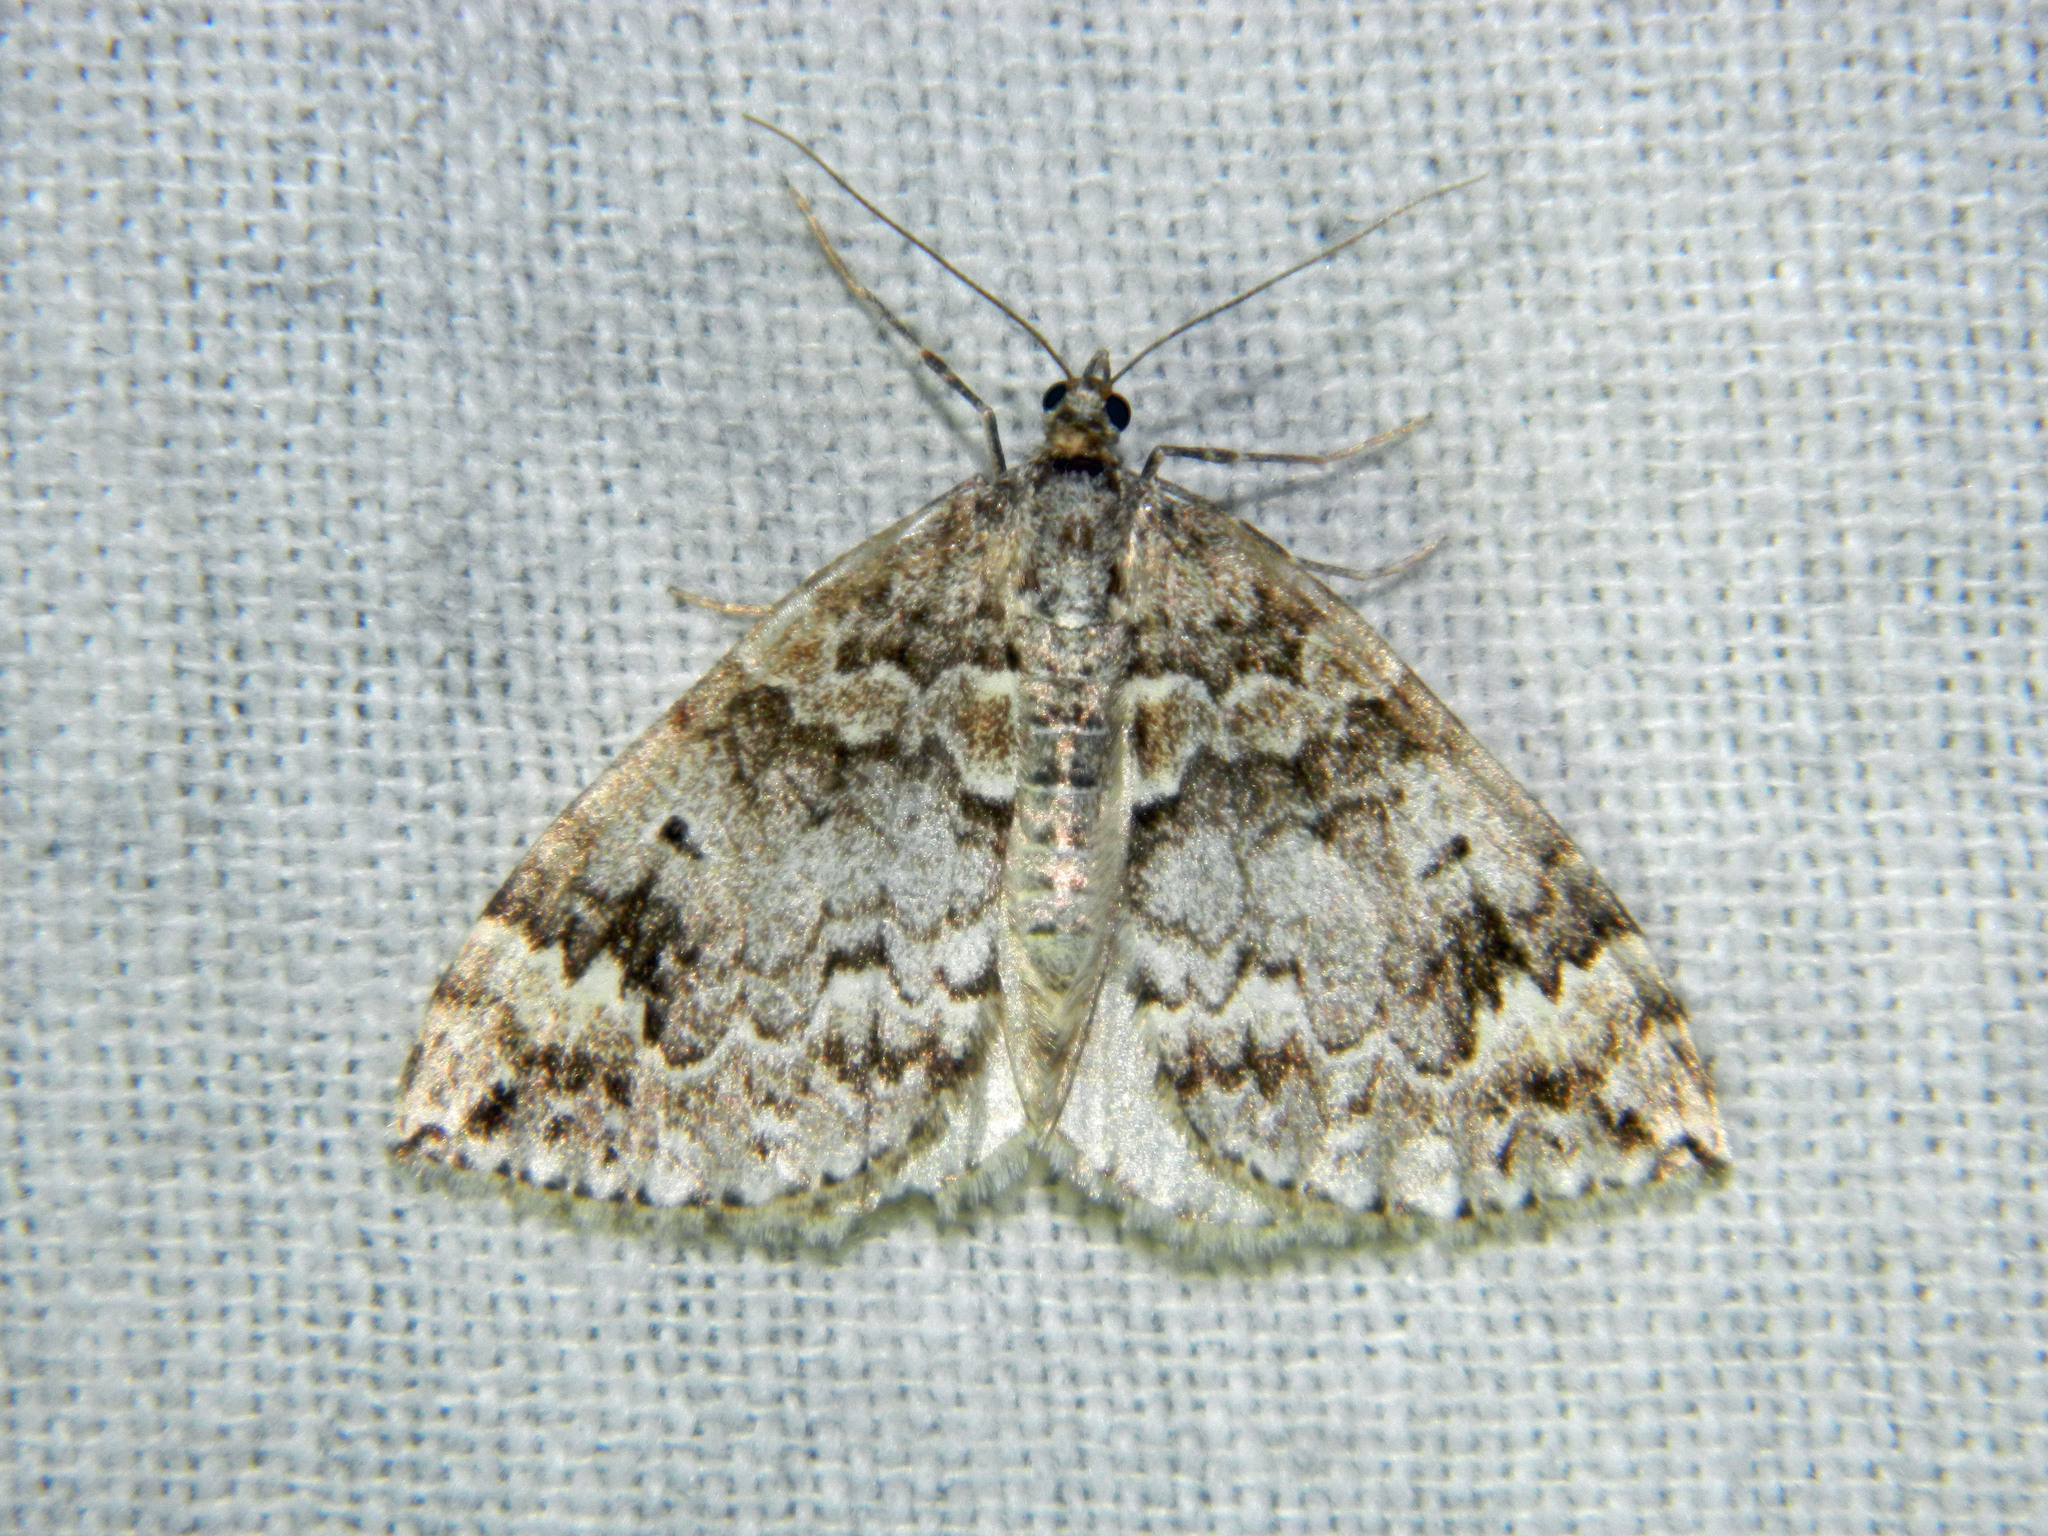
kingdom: Animalia
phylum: Arthropoda
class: Insecta
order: Lepidoptera
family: Geometridae
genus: Dysstroma
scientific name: Dysstroma walkerata
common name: Marbled carpet
